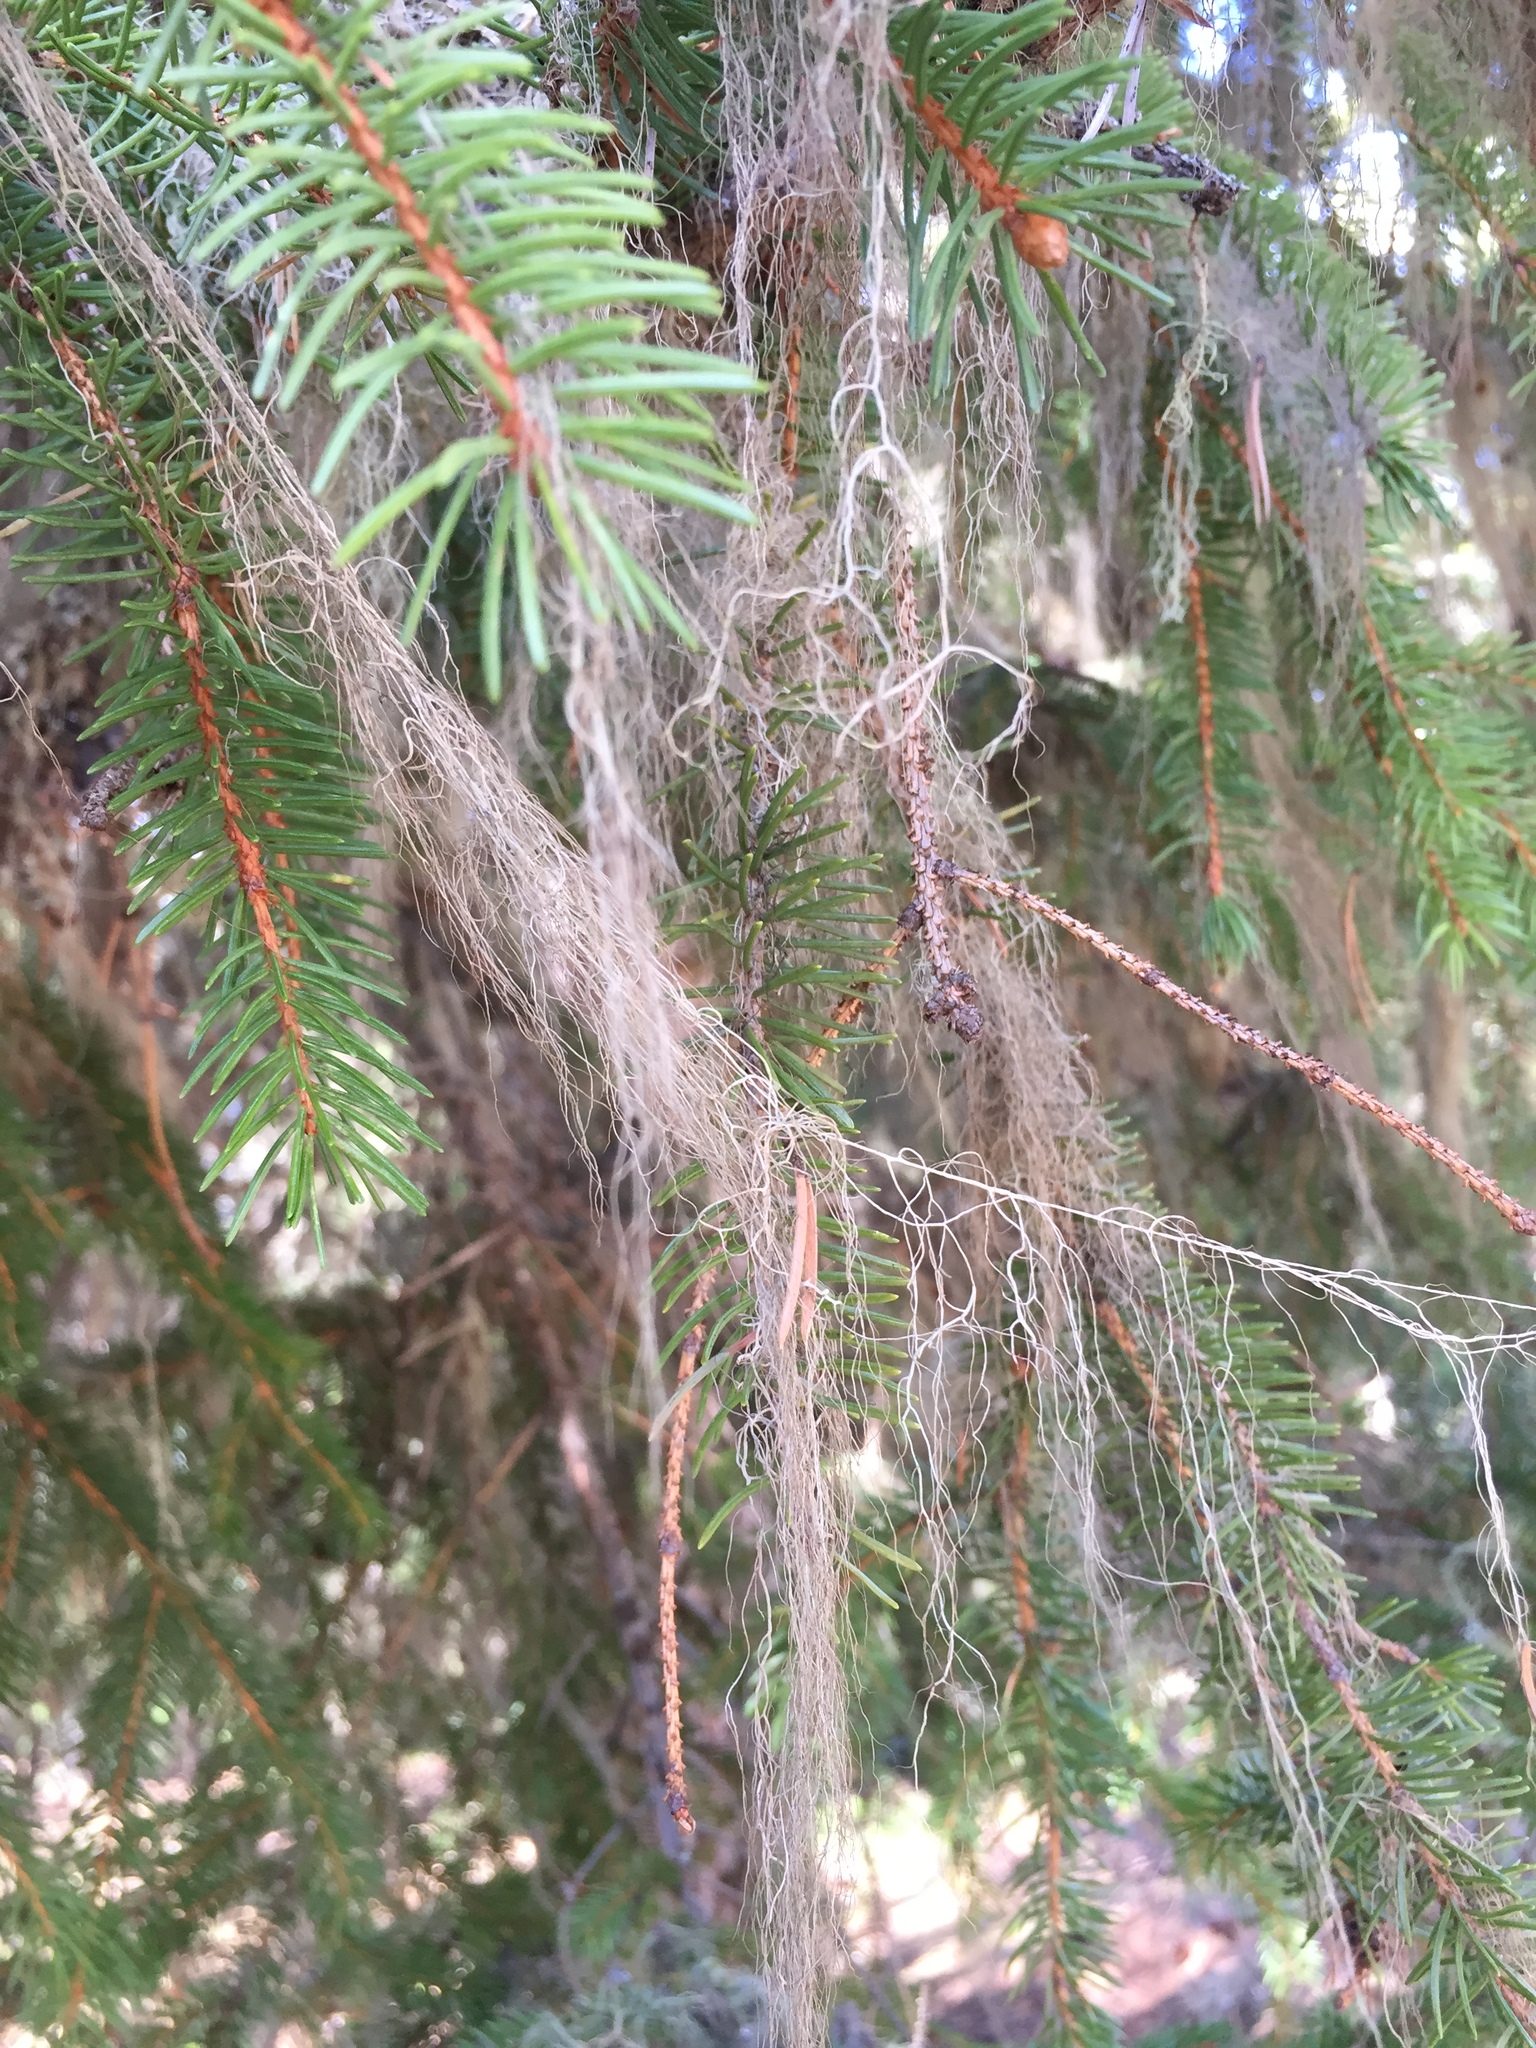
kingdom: Fungi
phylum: Ascomycota
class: Lecanoromycetes
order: Lecanorales
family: Parmeliaceae
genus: Bryoria
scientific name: Bryoria fuscescens
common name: Pale-footed horsehair lichen
